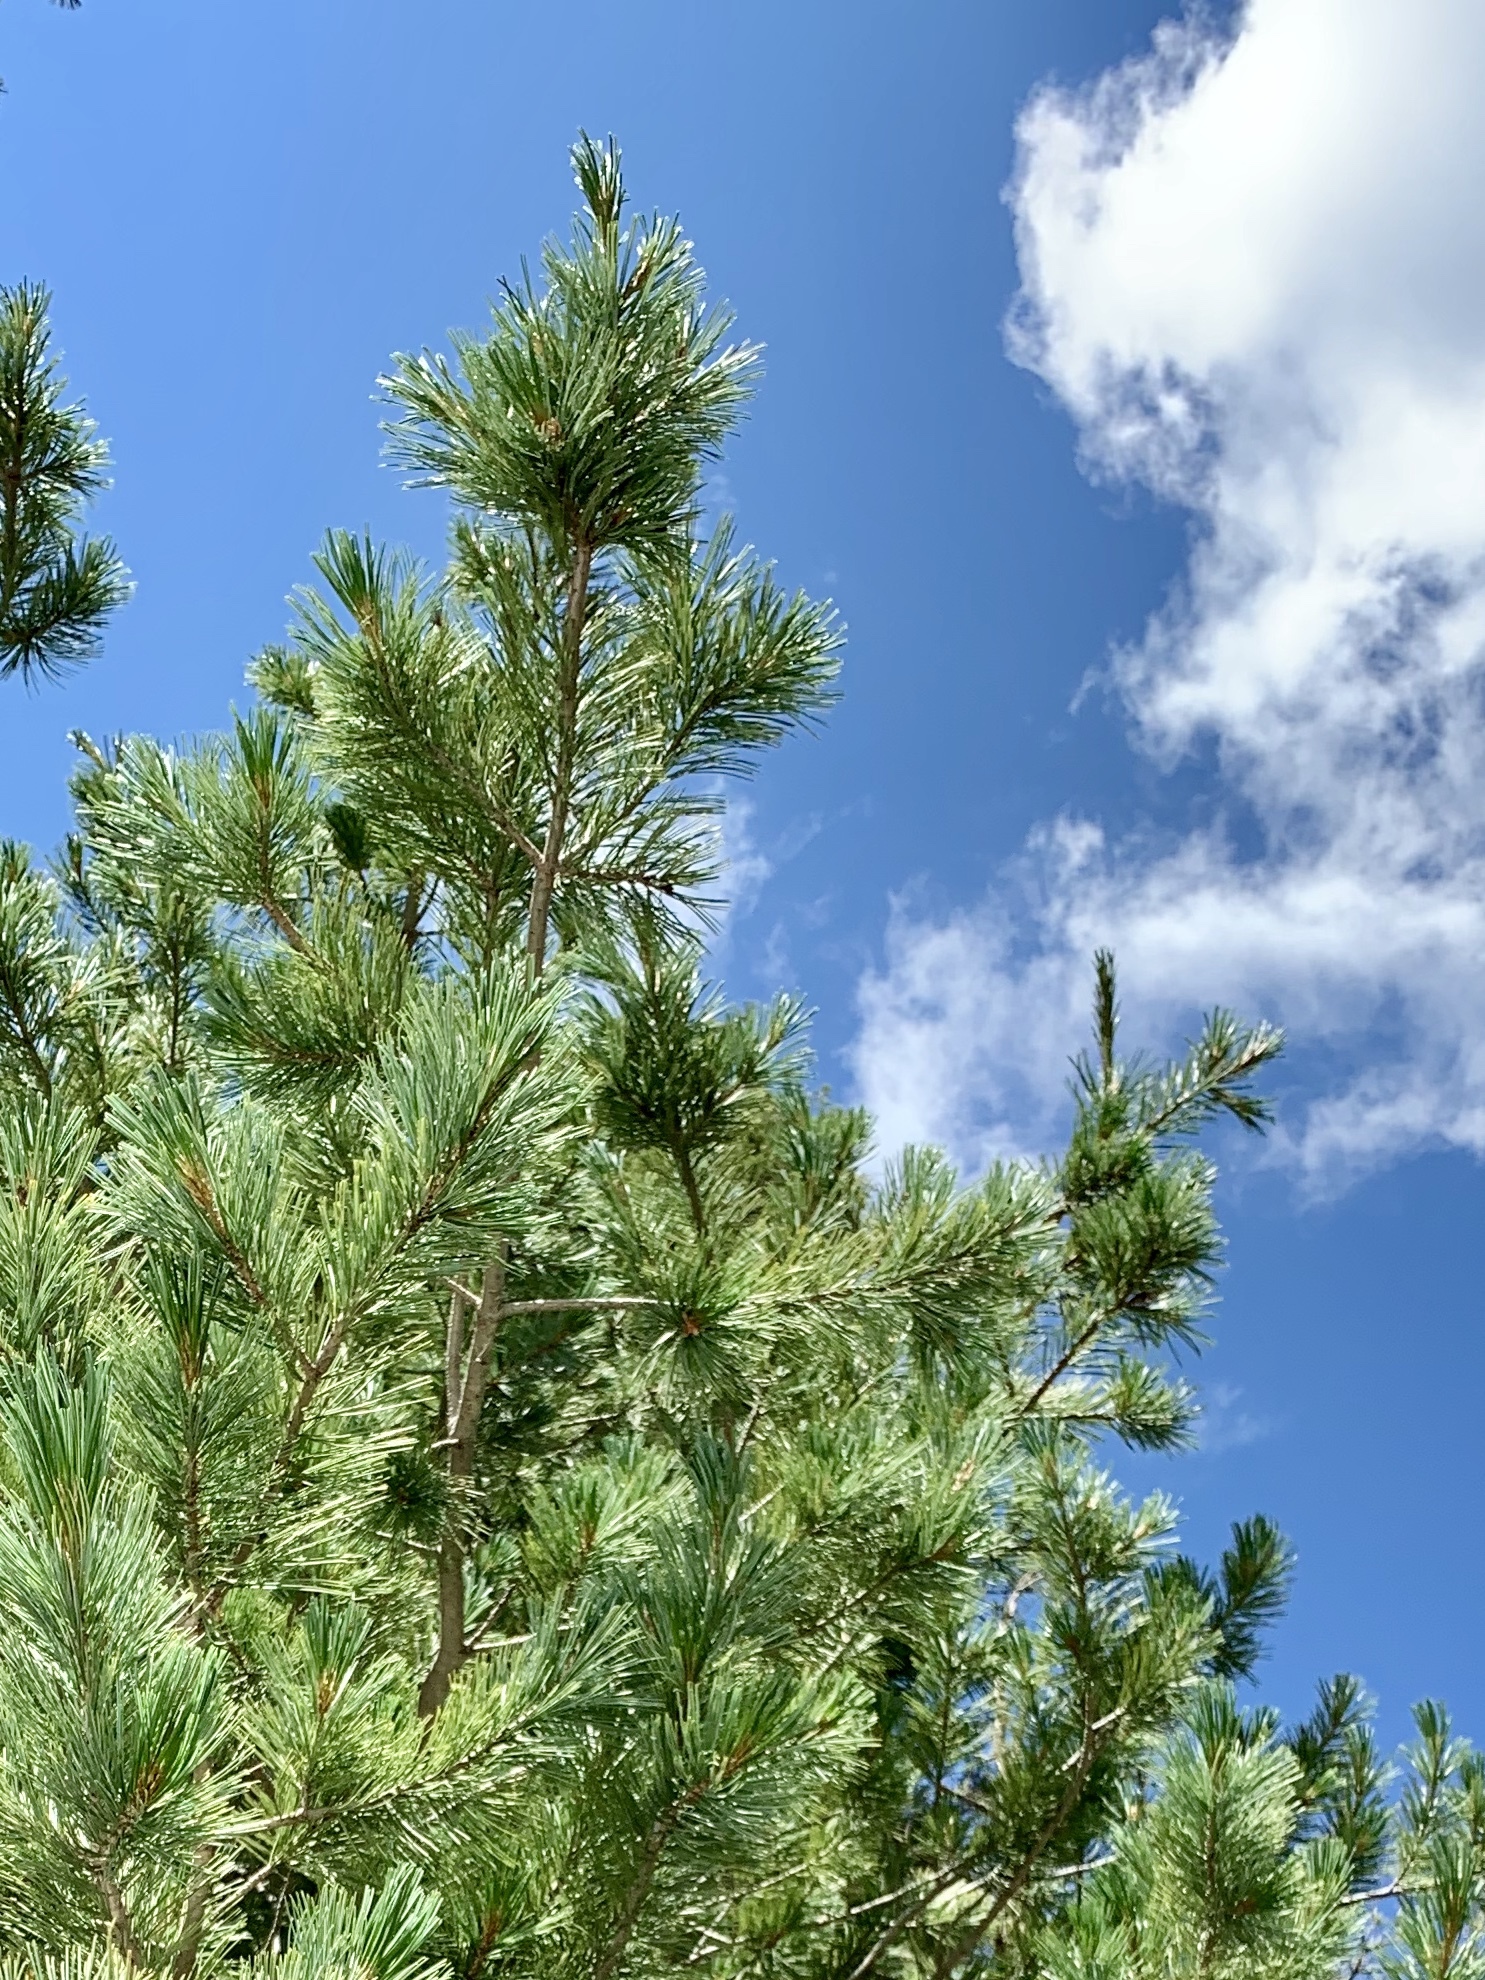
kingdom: Plantae
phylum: Tracheophyta
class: Pinopsida
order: Pinales
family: Pinaceae
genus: Pinus
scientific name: Pinus ponderosa
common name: Western yellow-pine
